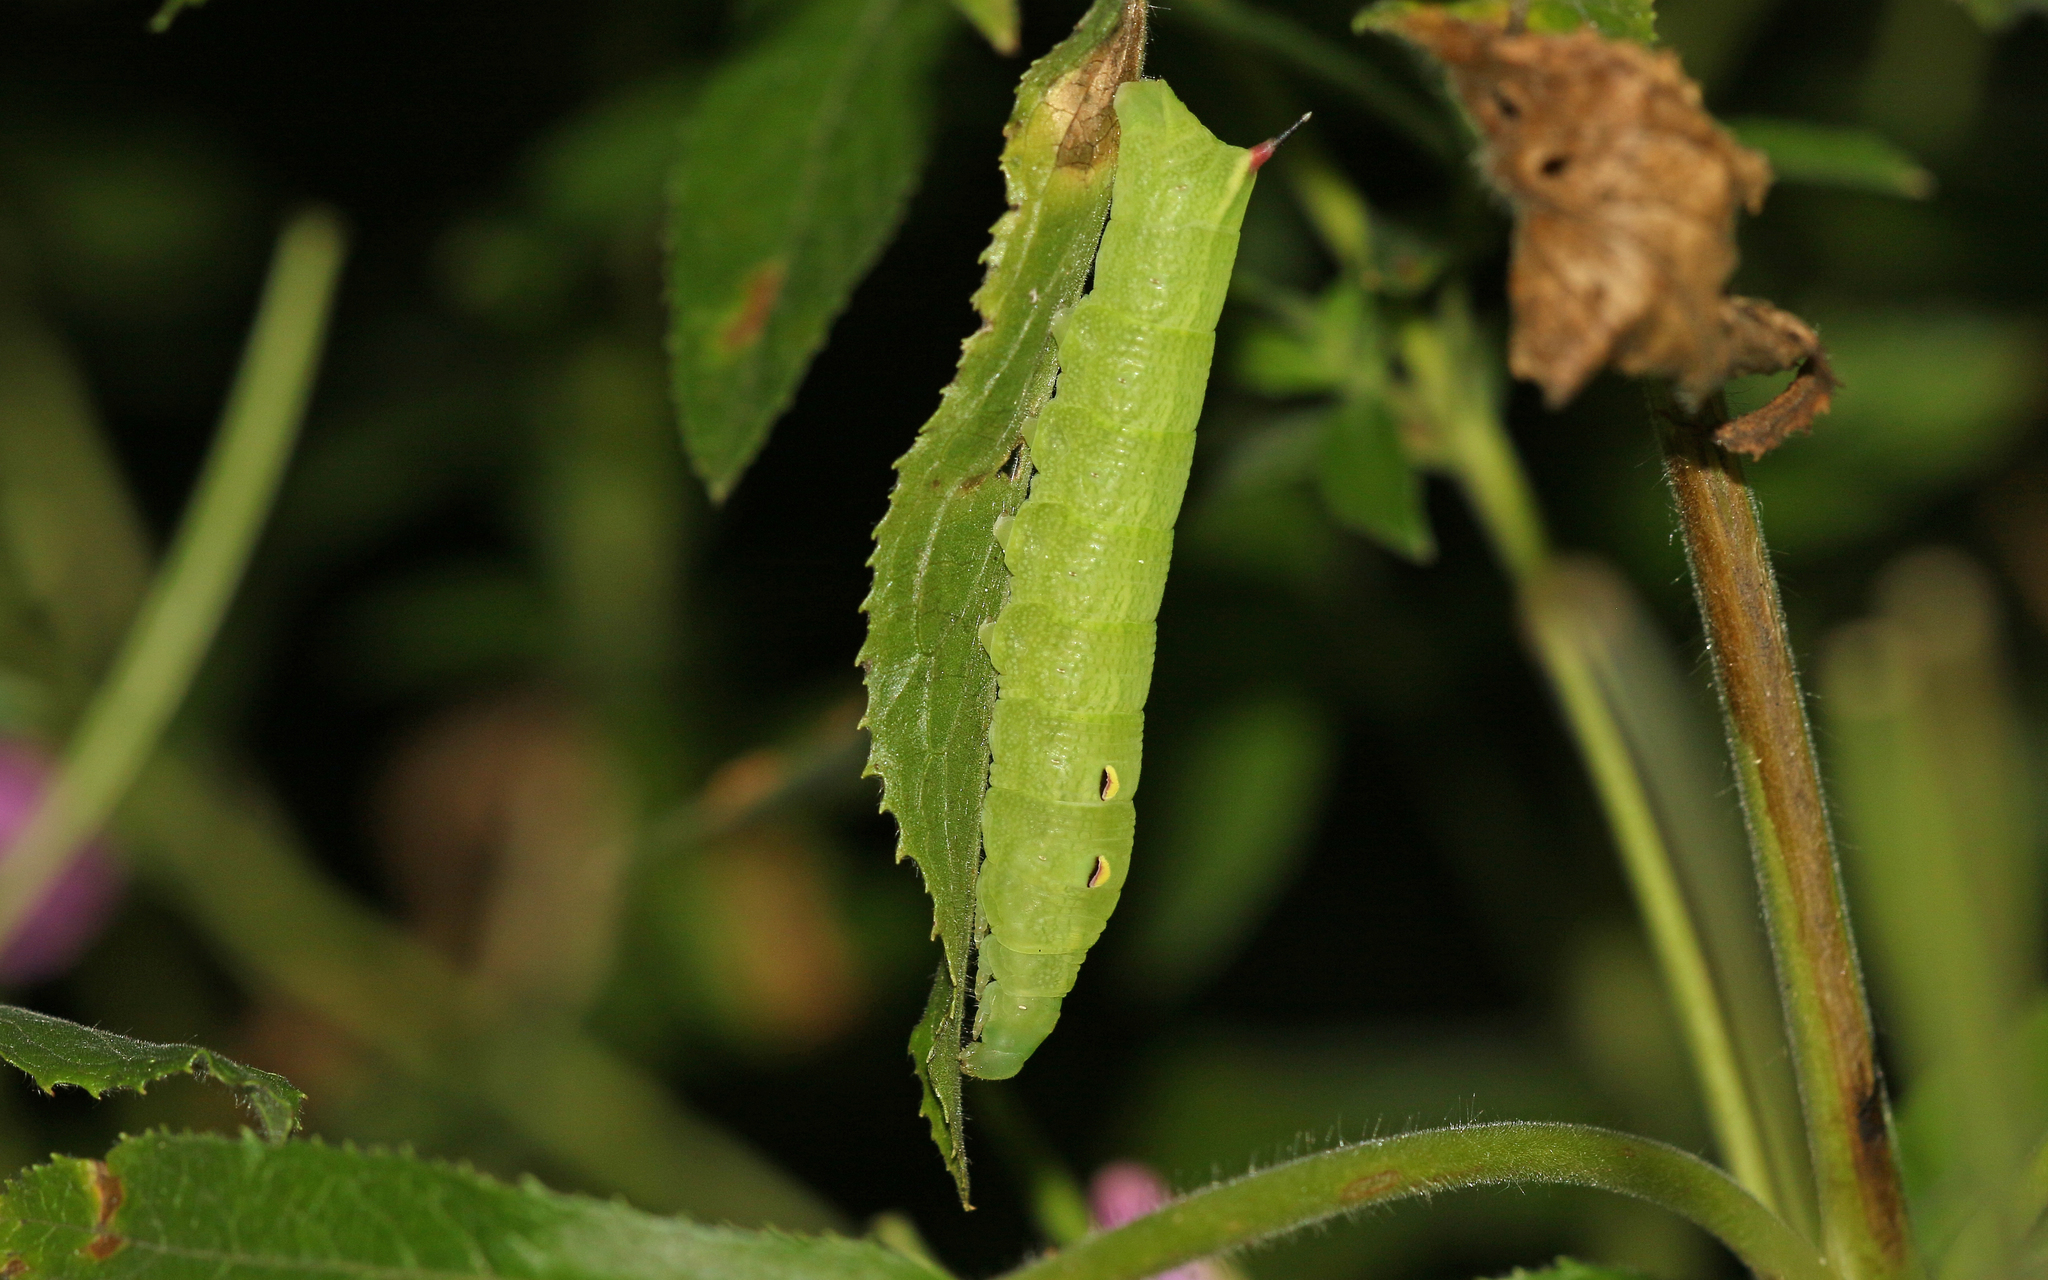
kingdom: Animalia
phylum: Arthropoda
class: Insecta
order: Lepidoptera
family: Sphingidae
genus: Deilephila
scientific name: Deilephila elpenor
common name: Elephant hawk-moth
